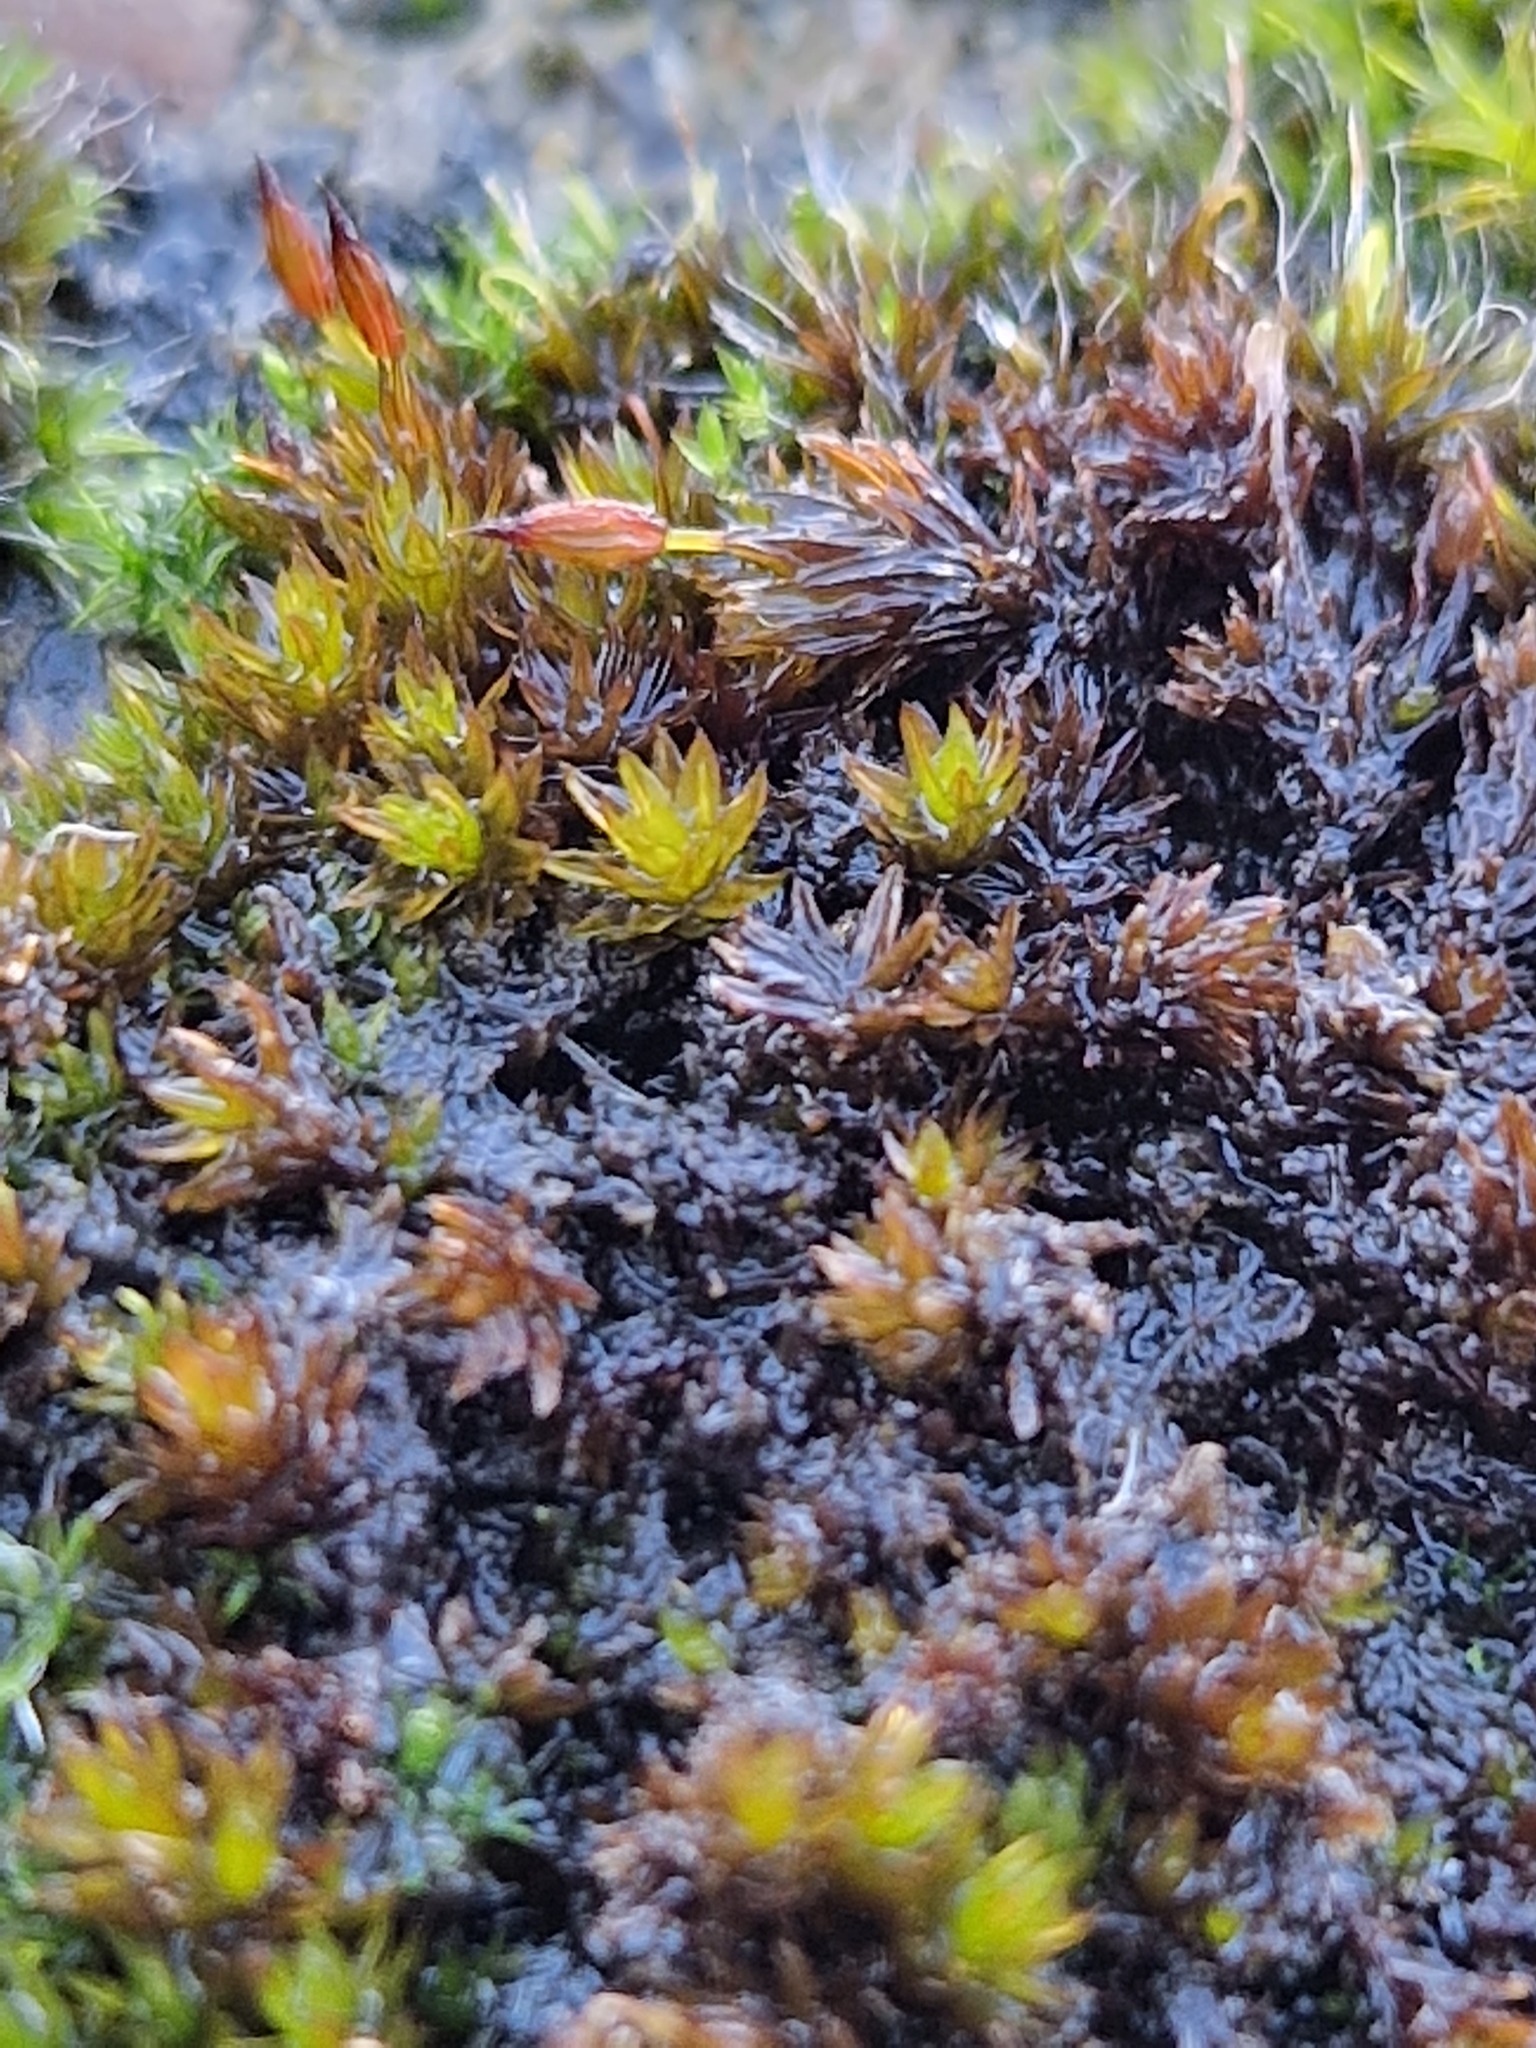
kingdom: Plantae
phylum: Bryophyta
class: Bryopsida
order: Orthotrichales
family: Orthotrichaceae
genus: Orthotrichum
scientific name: Orthotrichum anomalum
